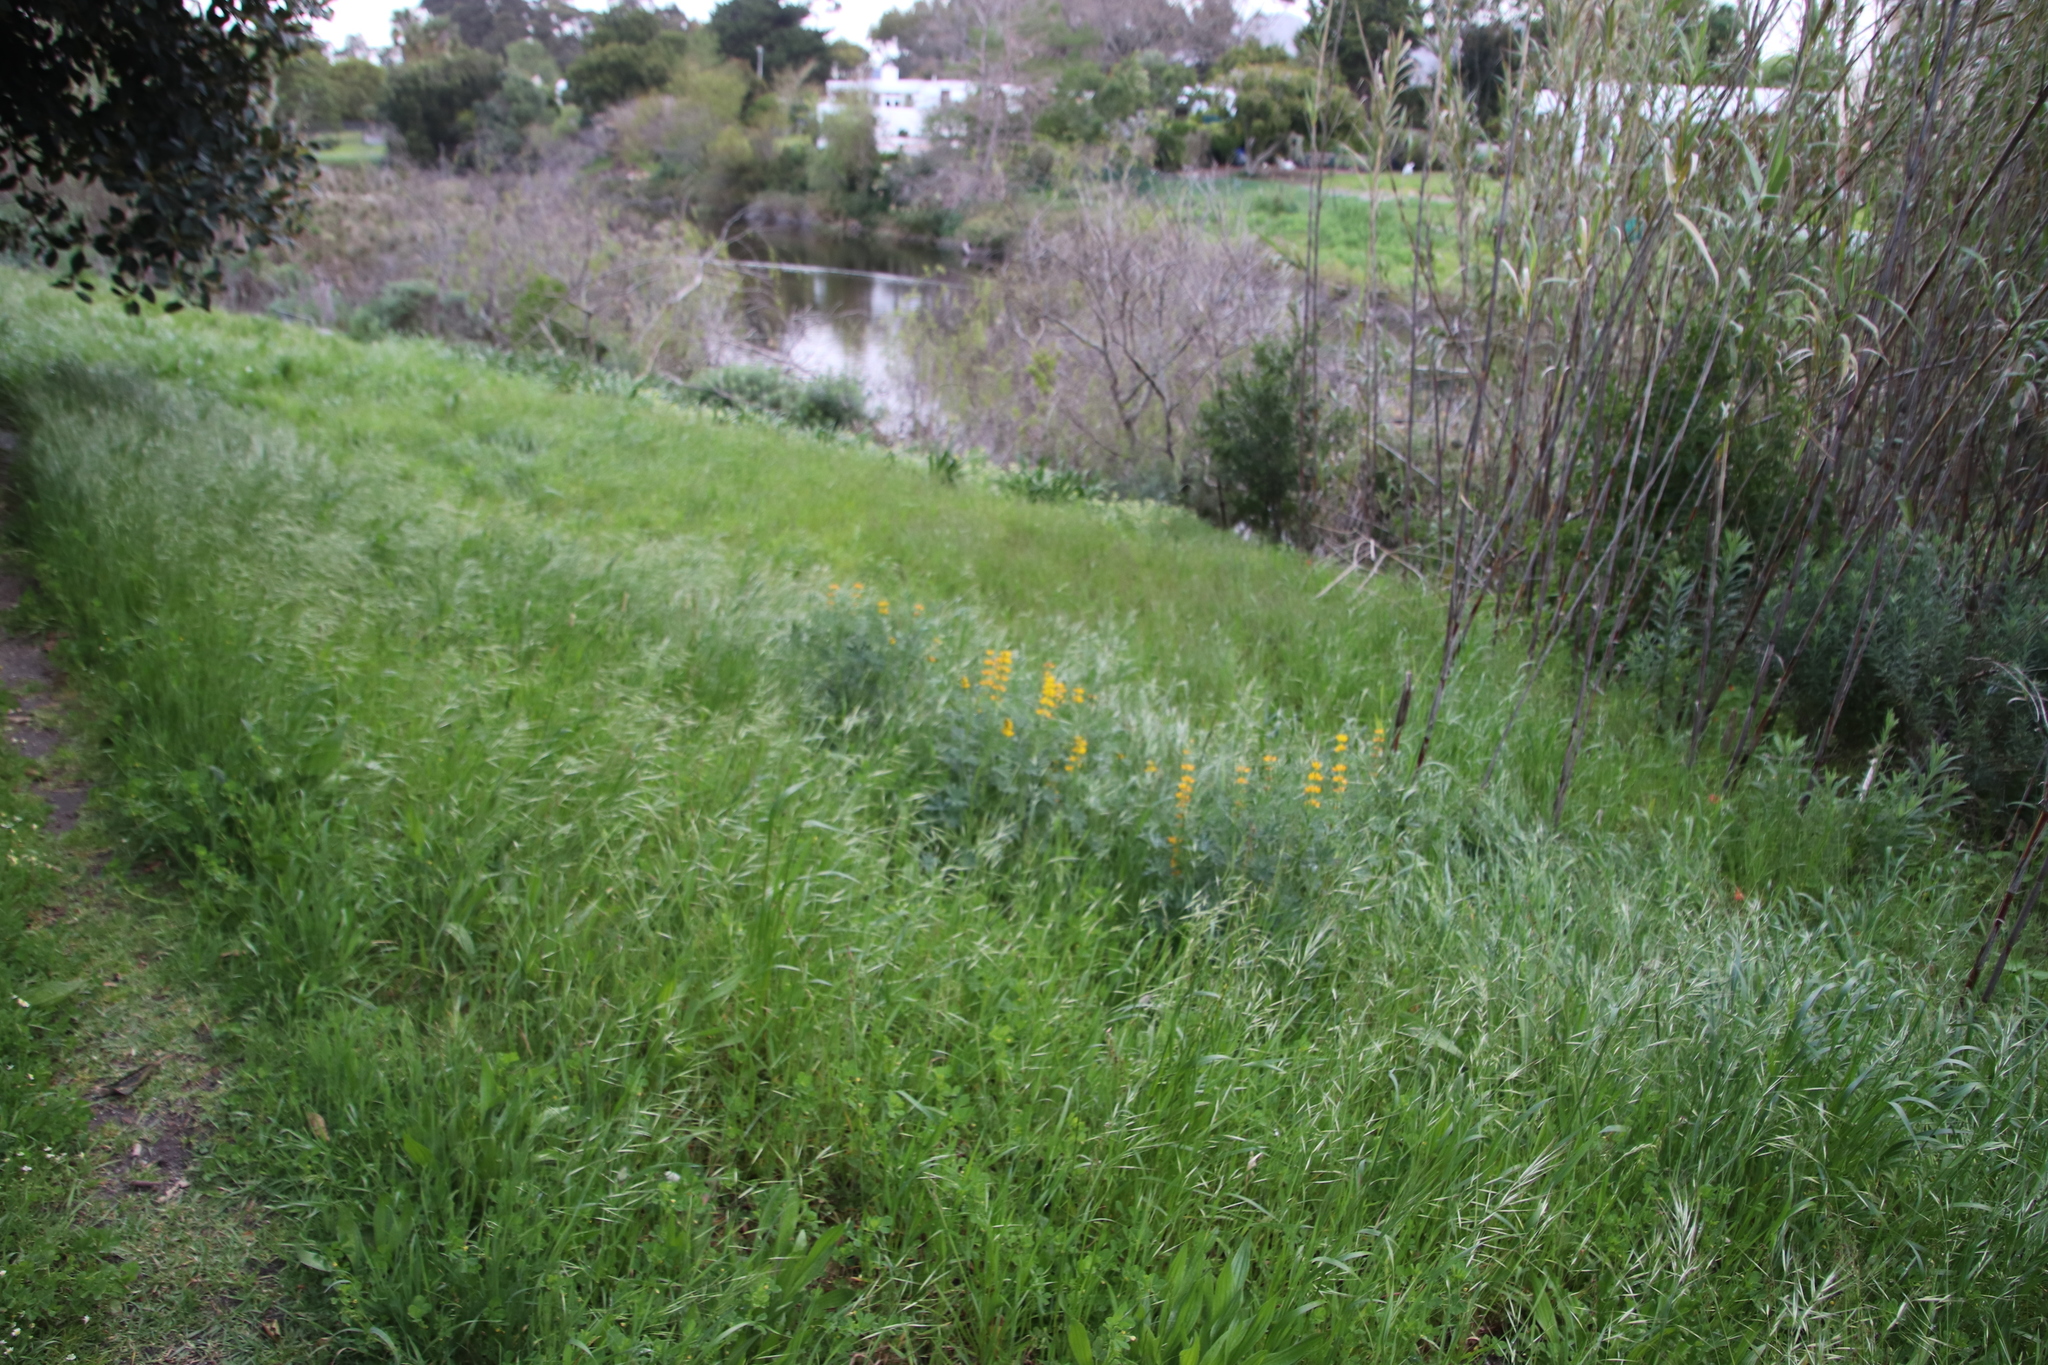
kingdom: Plantae
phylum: Tracheophyta
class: Magnoliopsida
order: Fabales
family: Fabaceae
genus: Lupinus
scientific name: Lupinus luteus
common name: European yellow lupine
